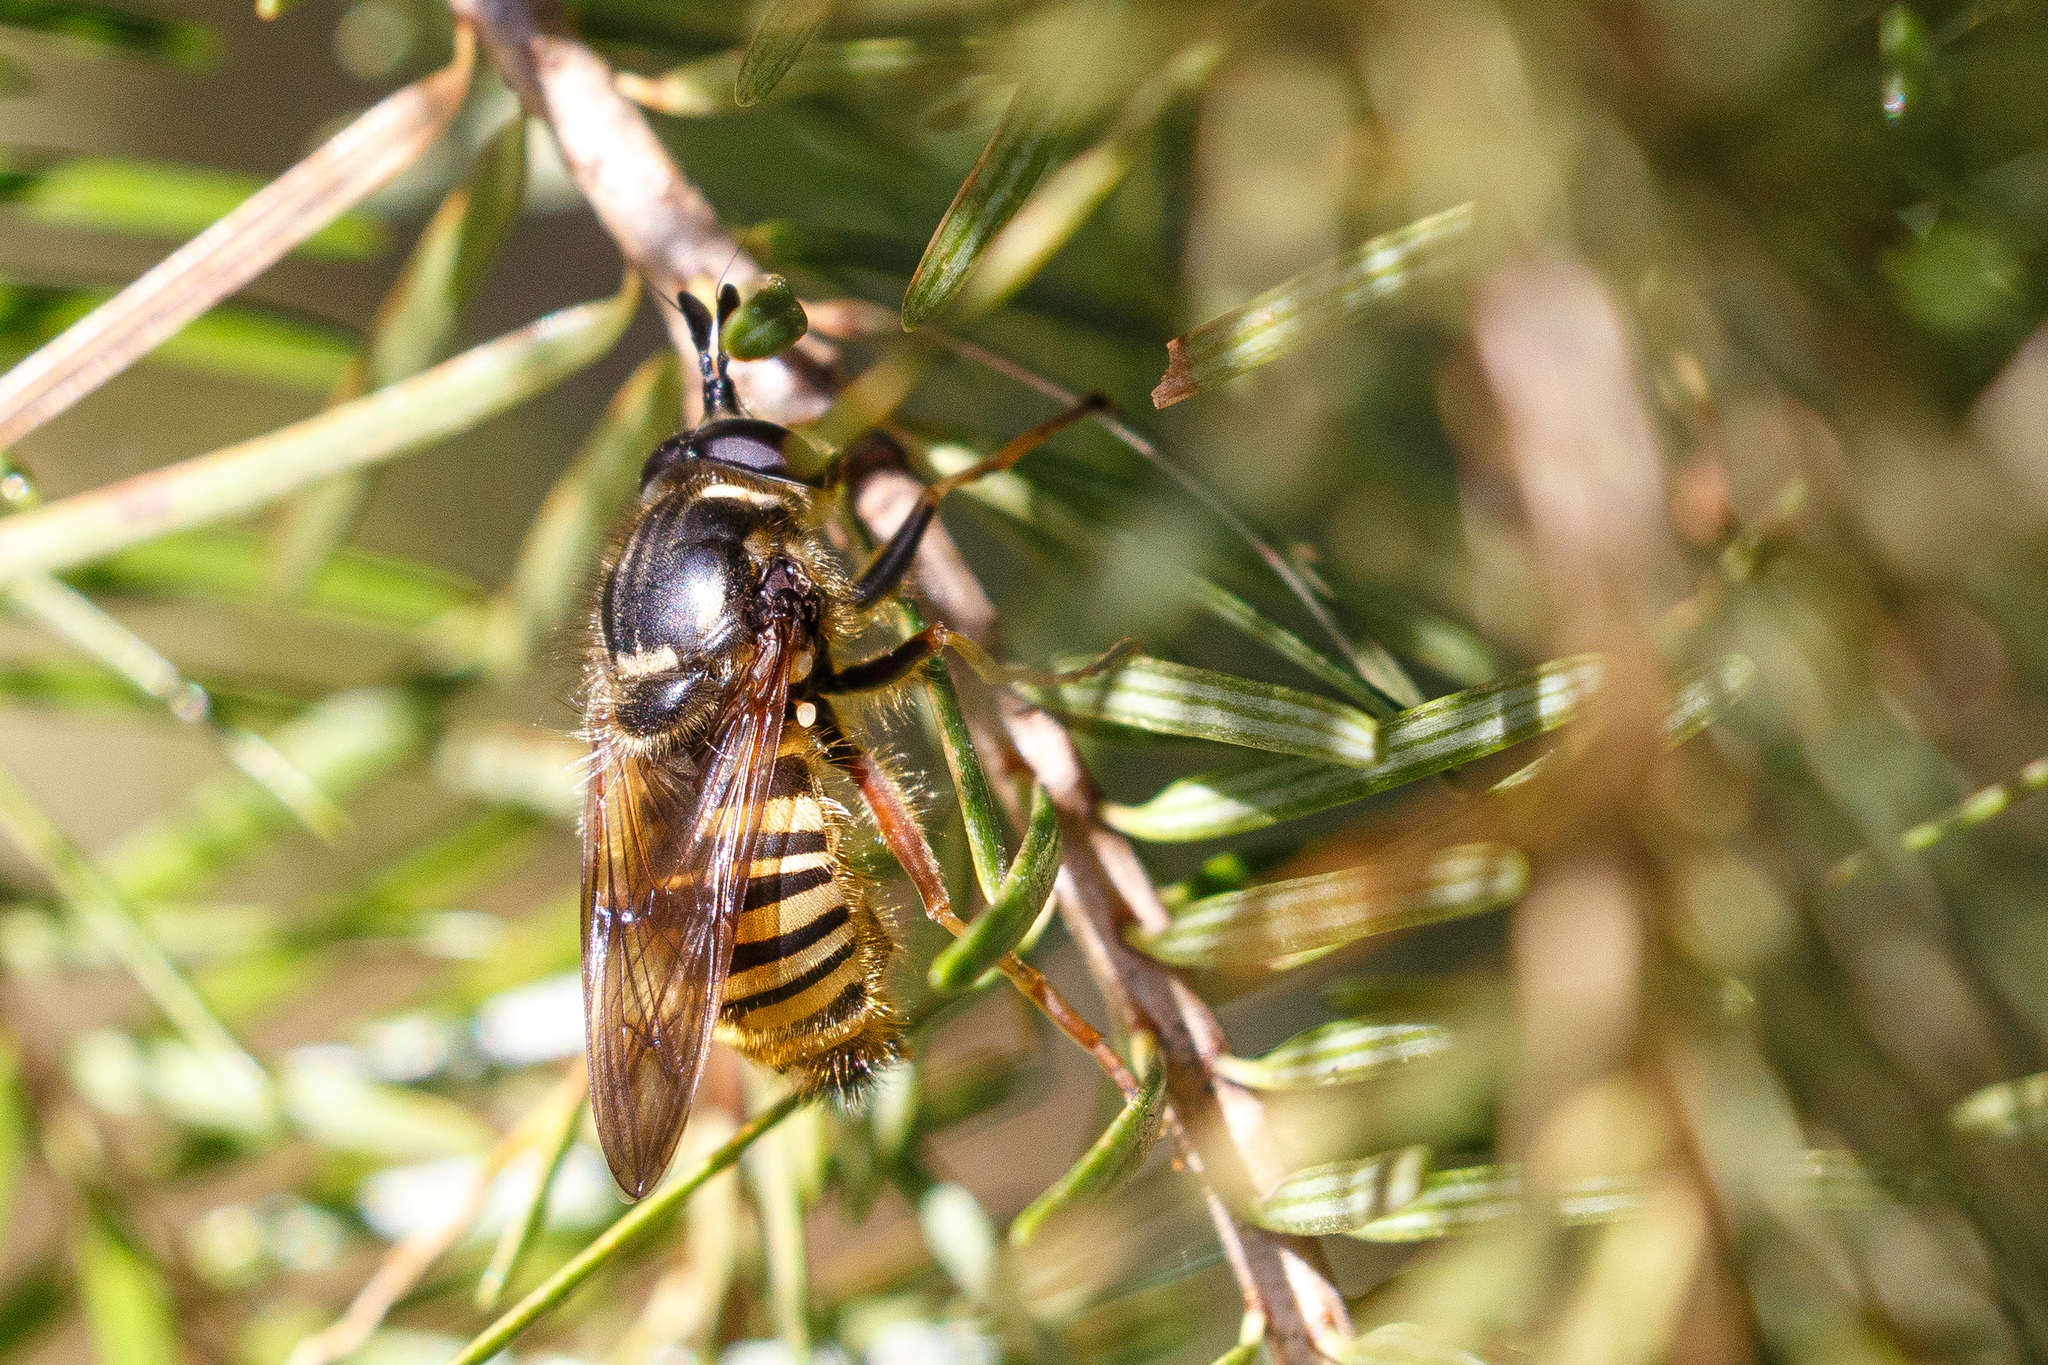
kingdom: Animalia
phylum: Arthropoda
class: Insecta
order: Diptera
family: Syrphidae
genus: Criorhina
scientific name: Criorhina occidentalis
